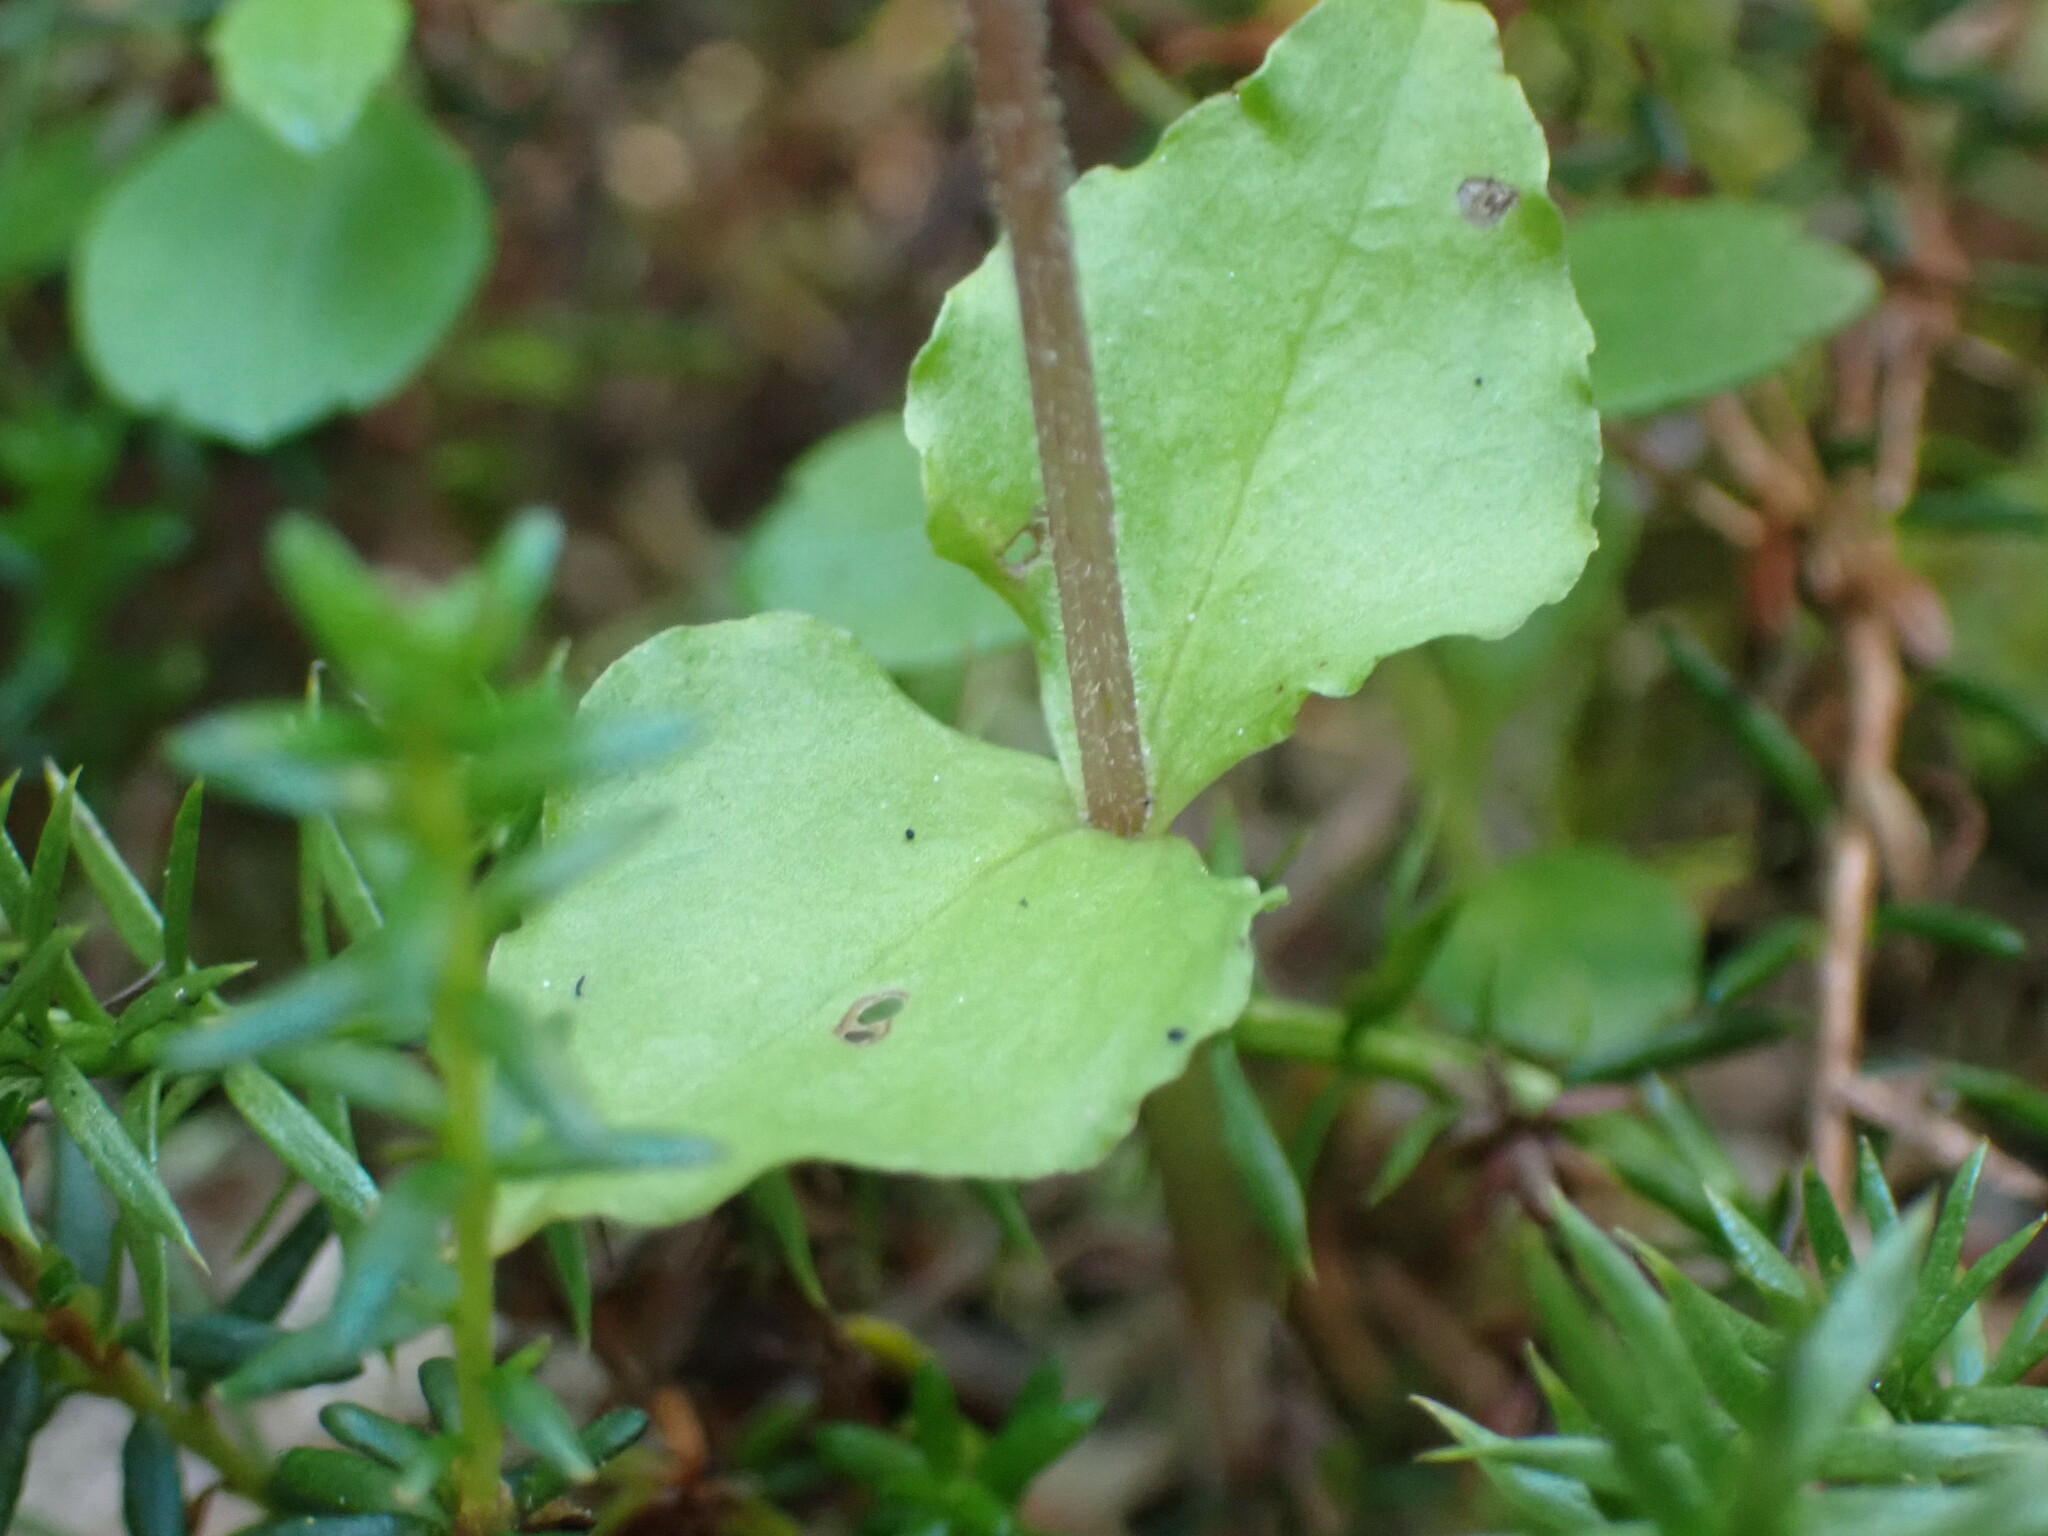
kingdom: Plantae
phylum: Tracheophyta
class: Liliopsida
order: Asparagales
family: Orchidaceae
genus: Neottia
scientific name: Neottia cordata
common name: Lesser twayblade
